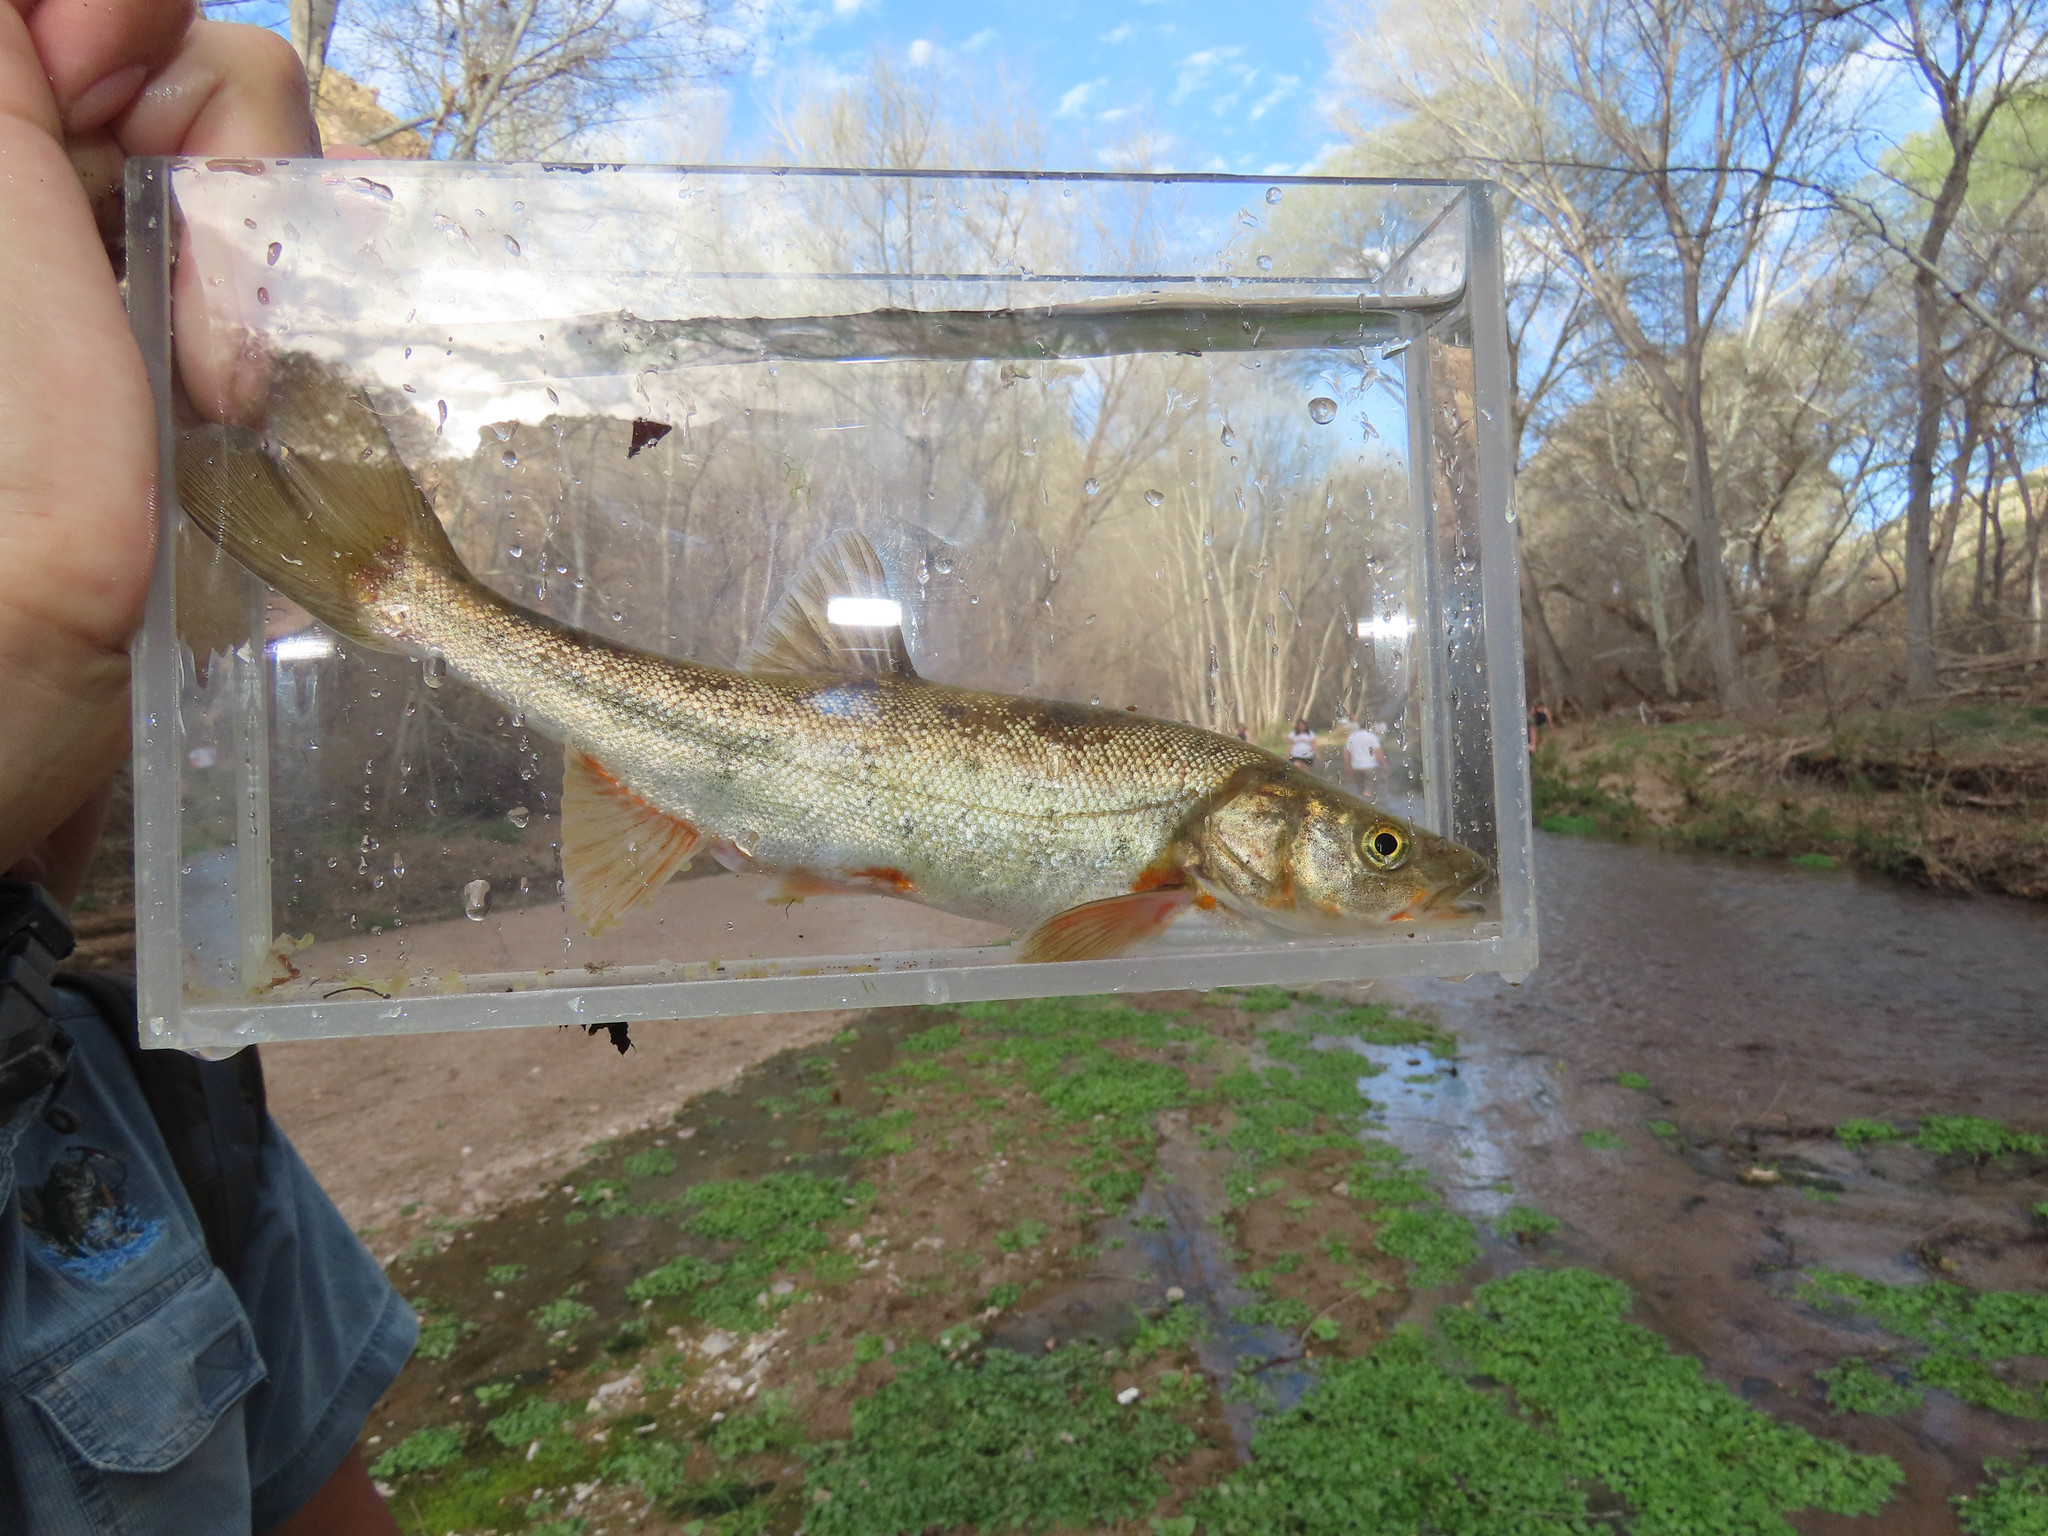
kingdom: Animalia
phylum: Chordata
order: Cypriniformes
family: Cyprinidae
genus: Gila
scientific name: Gila robusta
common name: Roundtail chub
